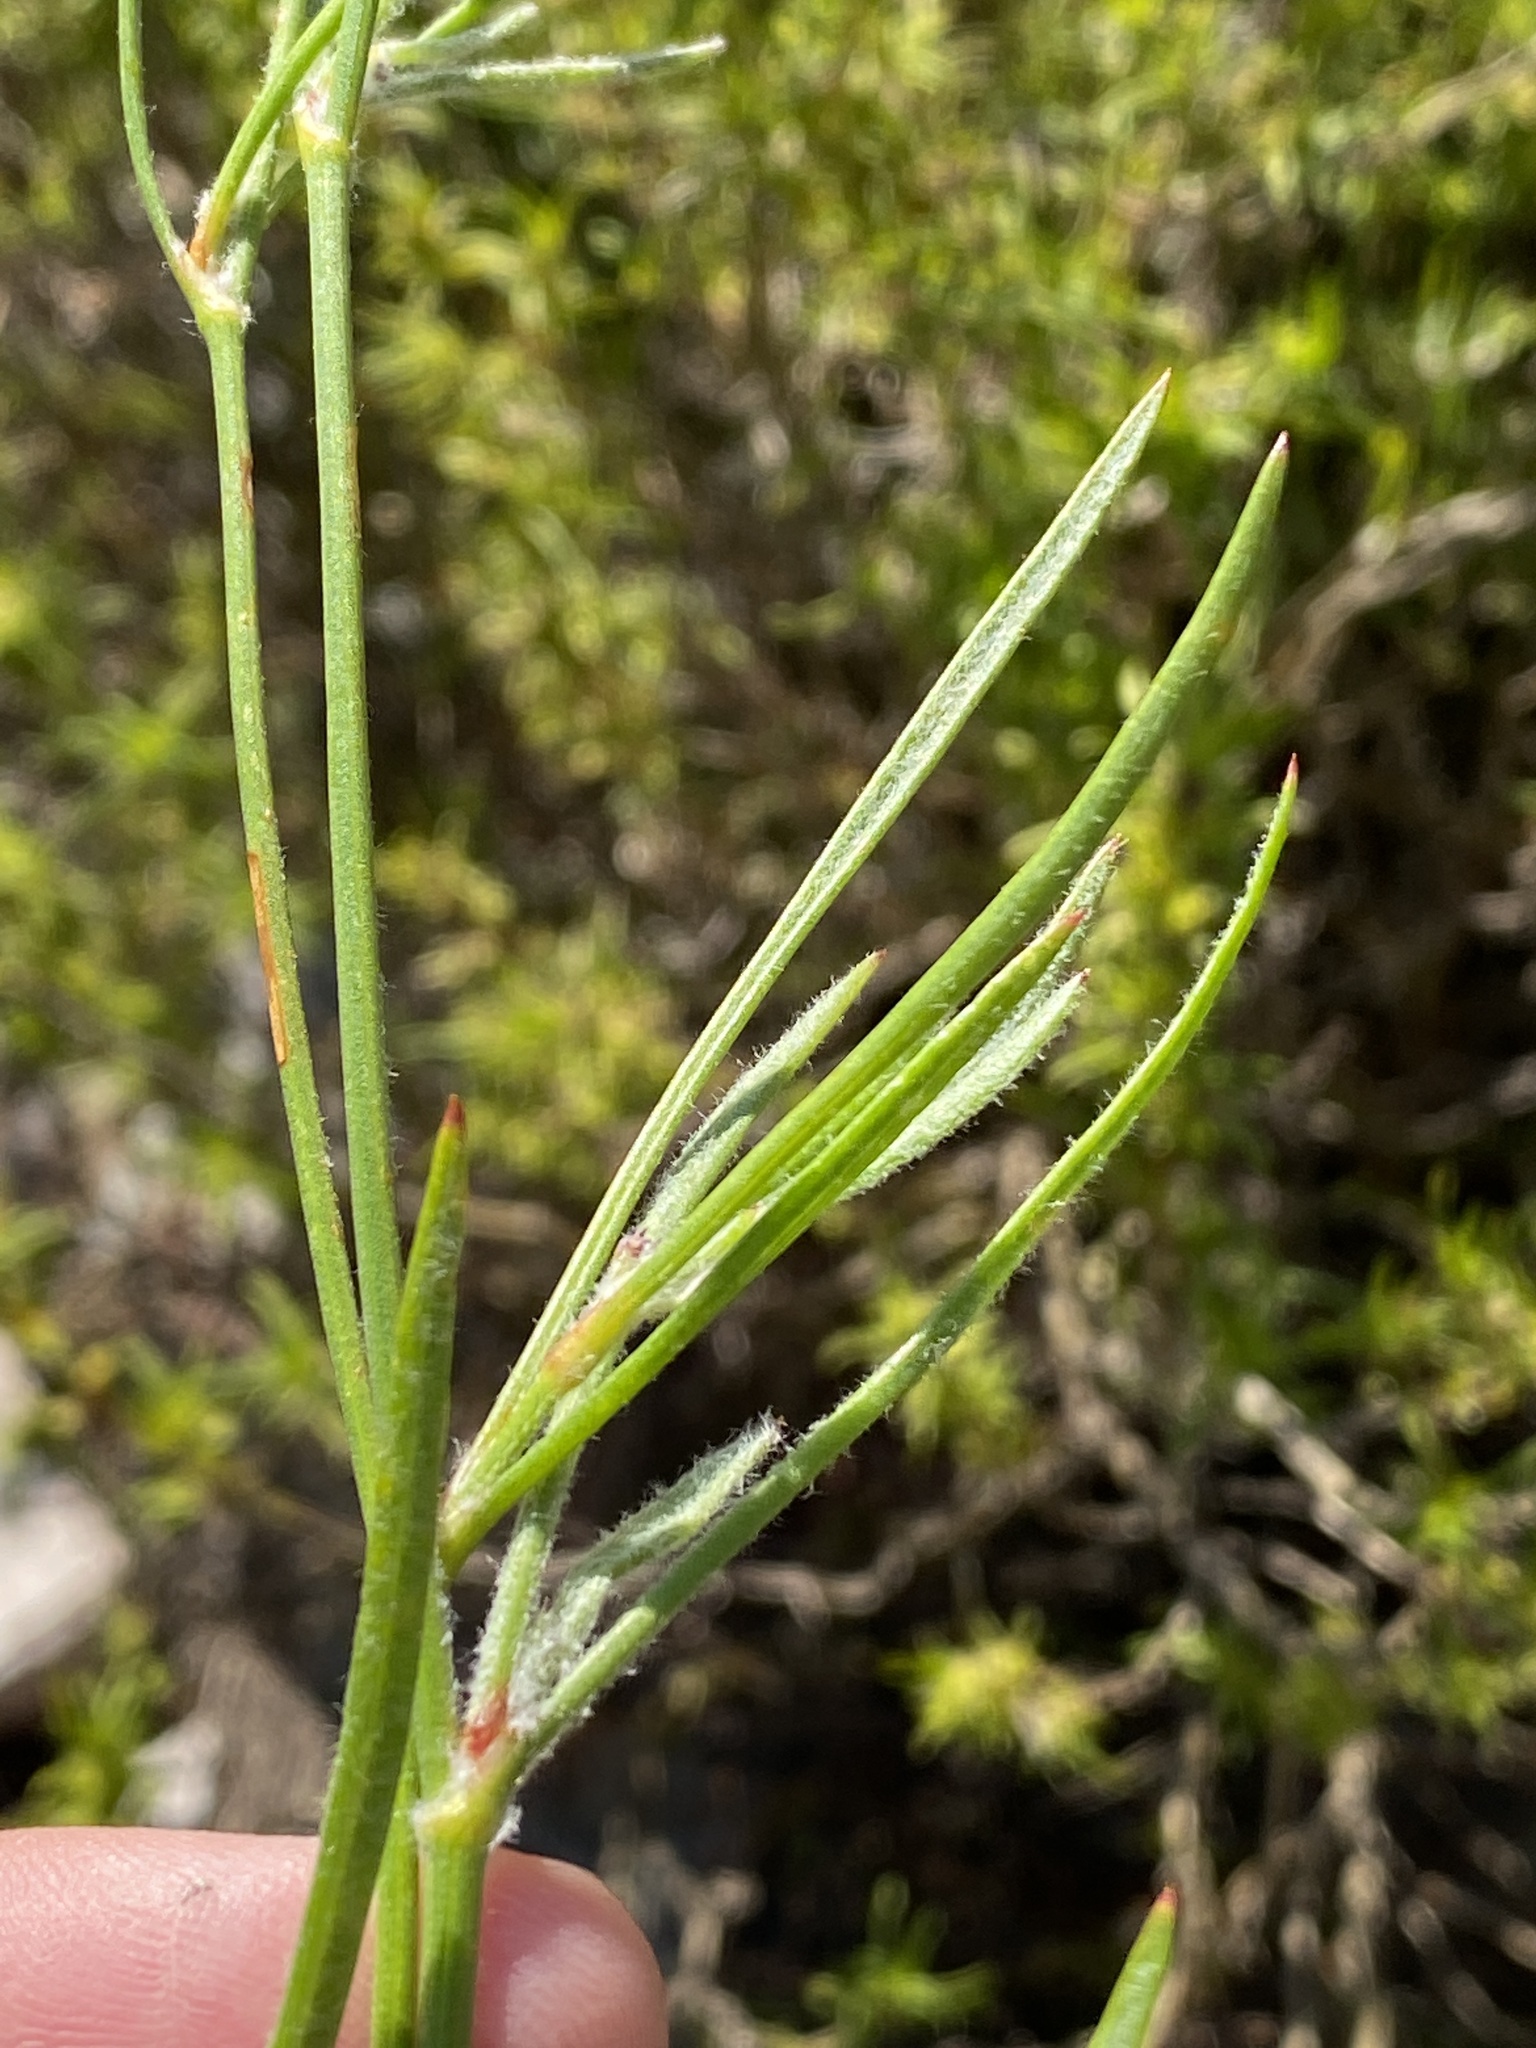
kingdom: Plantae
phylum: Tracheophyta
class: Magnoliopsida
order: Apiales
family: Apiaceae
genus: Centella
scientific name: Centella virgata
